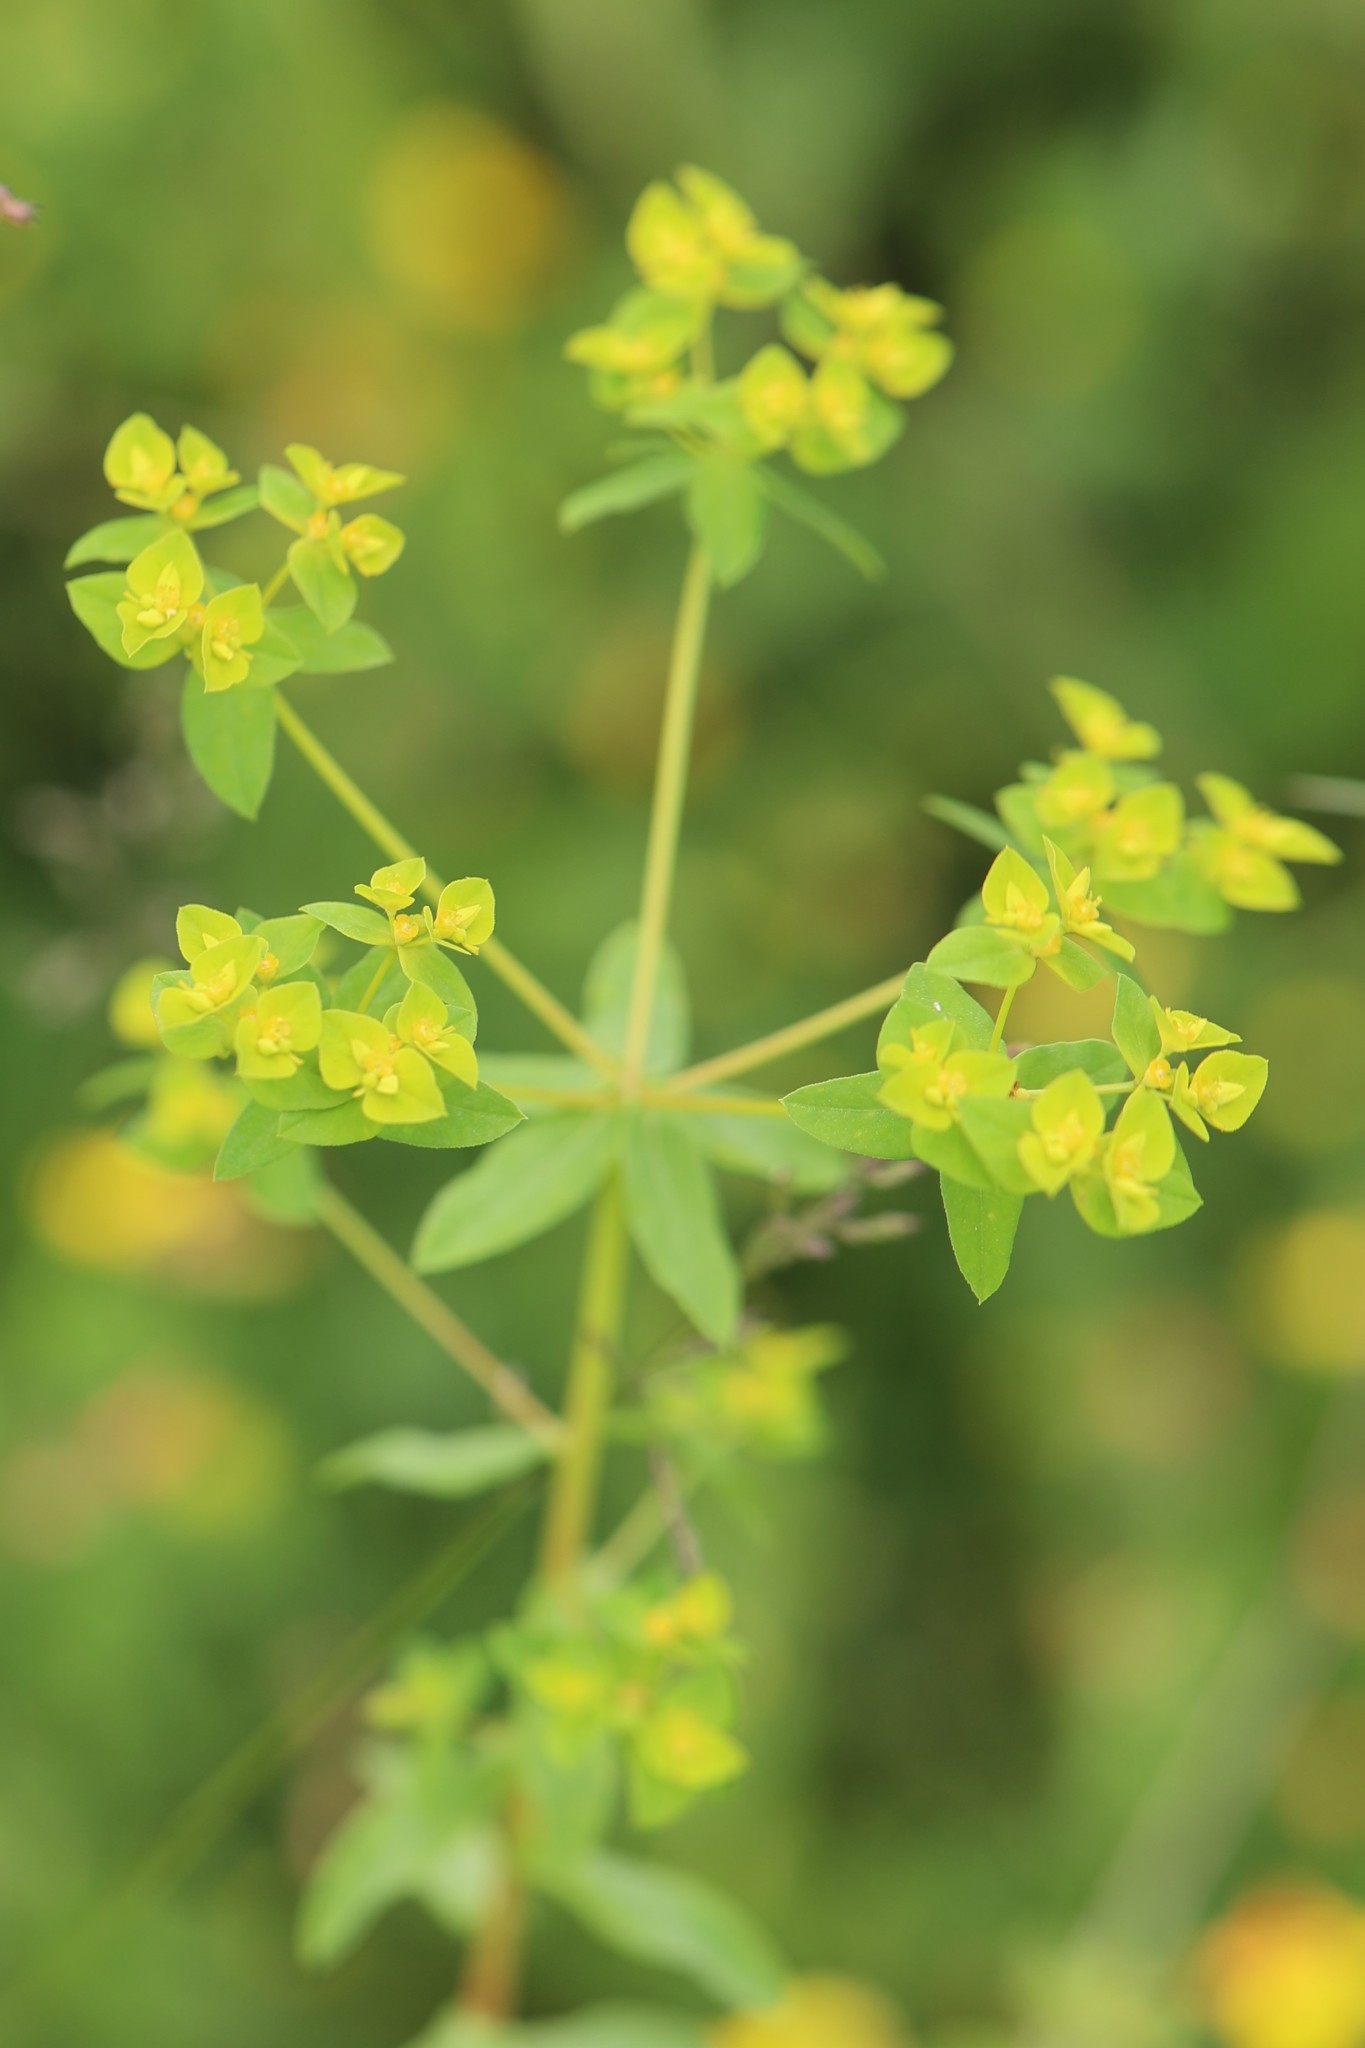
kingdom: Plantae
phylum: Tracheophyta
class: Magnoliopsida
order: Malpighiales
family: Euphorbiaceae
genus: Euphorbia
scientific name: Euphorbia platyphyllos
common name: Broad-leaved spurge
